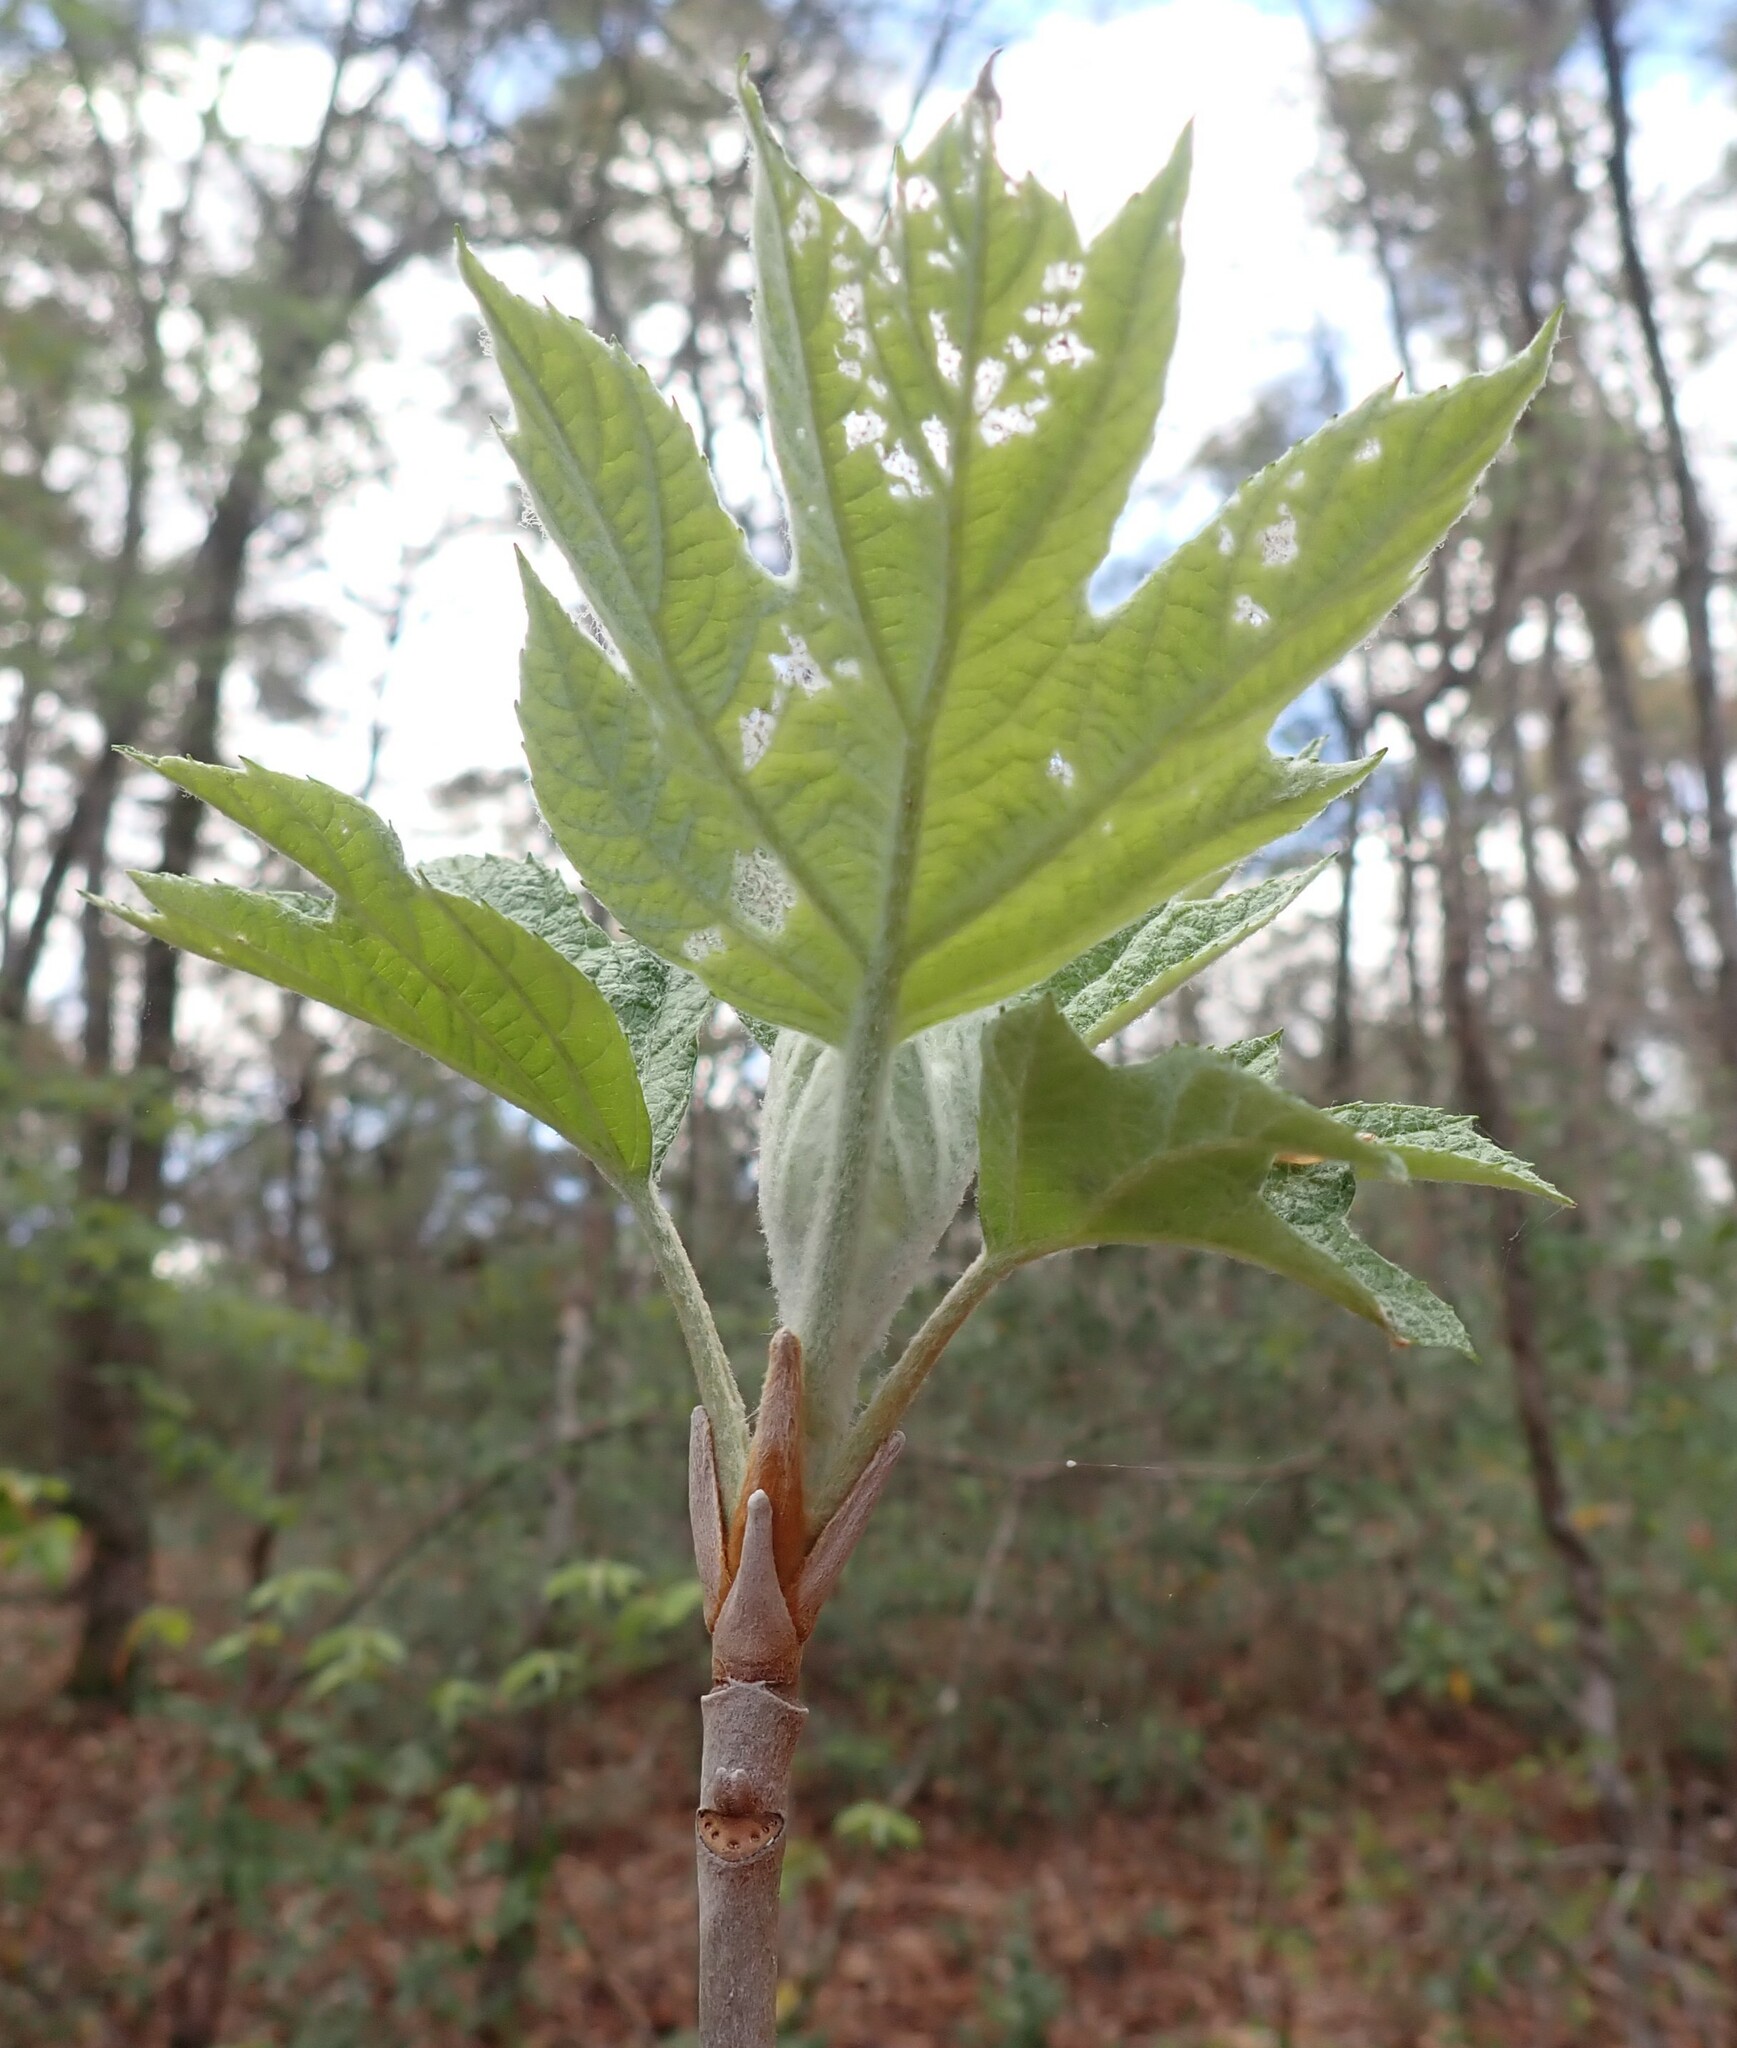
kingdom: Plantae
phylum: Tracheophyta
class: Magnoliopsida
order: Cornales
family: Hydrangeaceae
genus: Hydrangea
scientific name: Hydrangea quercifolia
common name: Oak-leaf hydrangea
